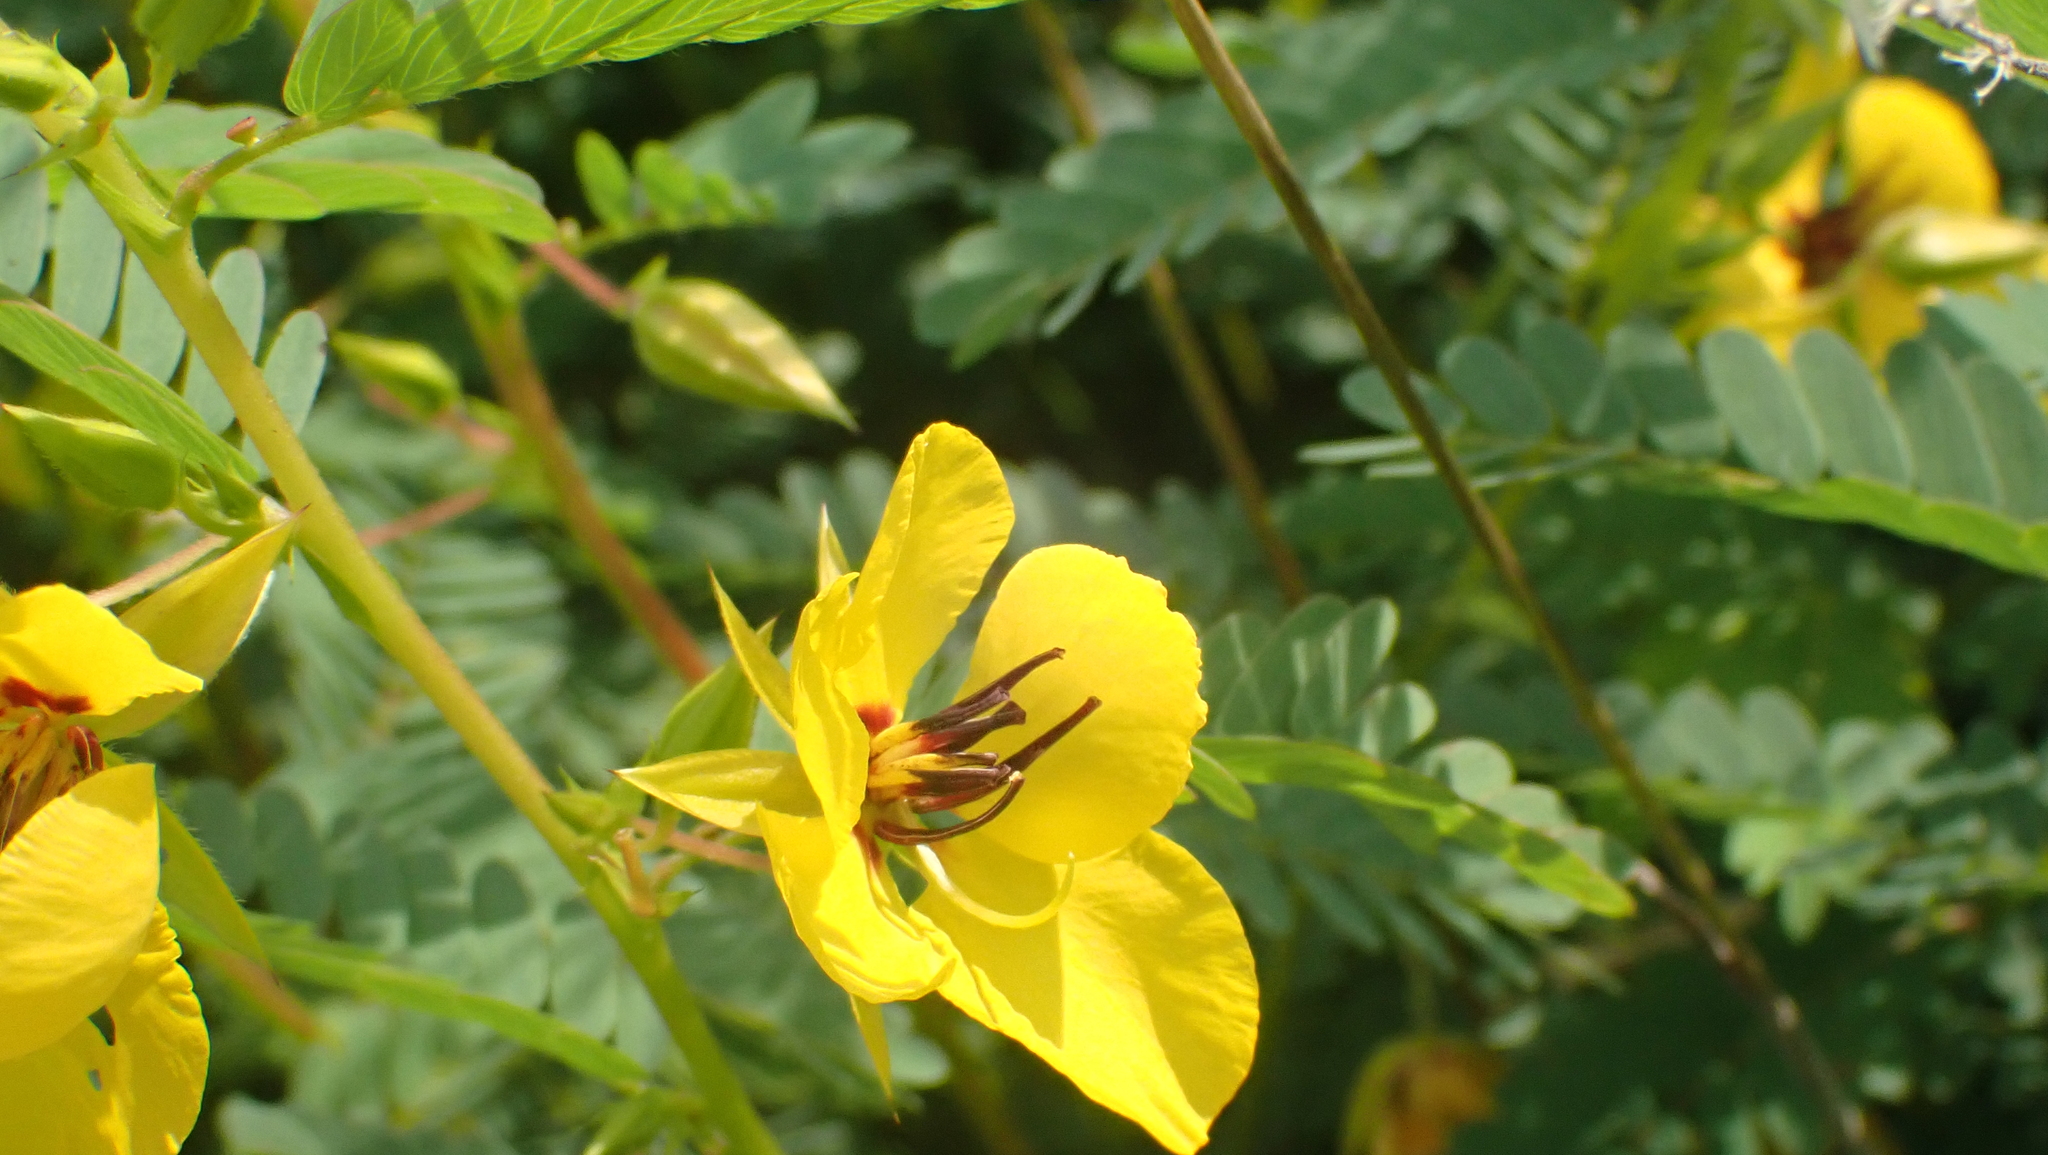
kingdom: Plantae
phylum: Tracheophyta
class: Magnoliopsida
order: Fabales
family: Fabaceae
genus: Chamaecrista
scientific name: Chamaecrista fasciculata
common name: Golden cassia
